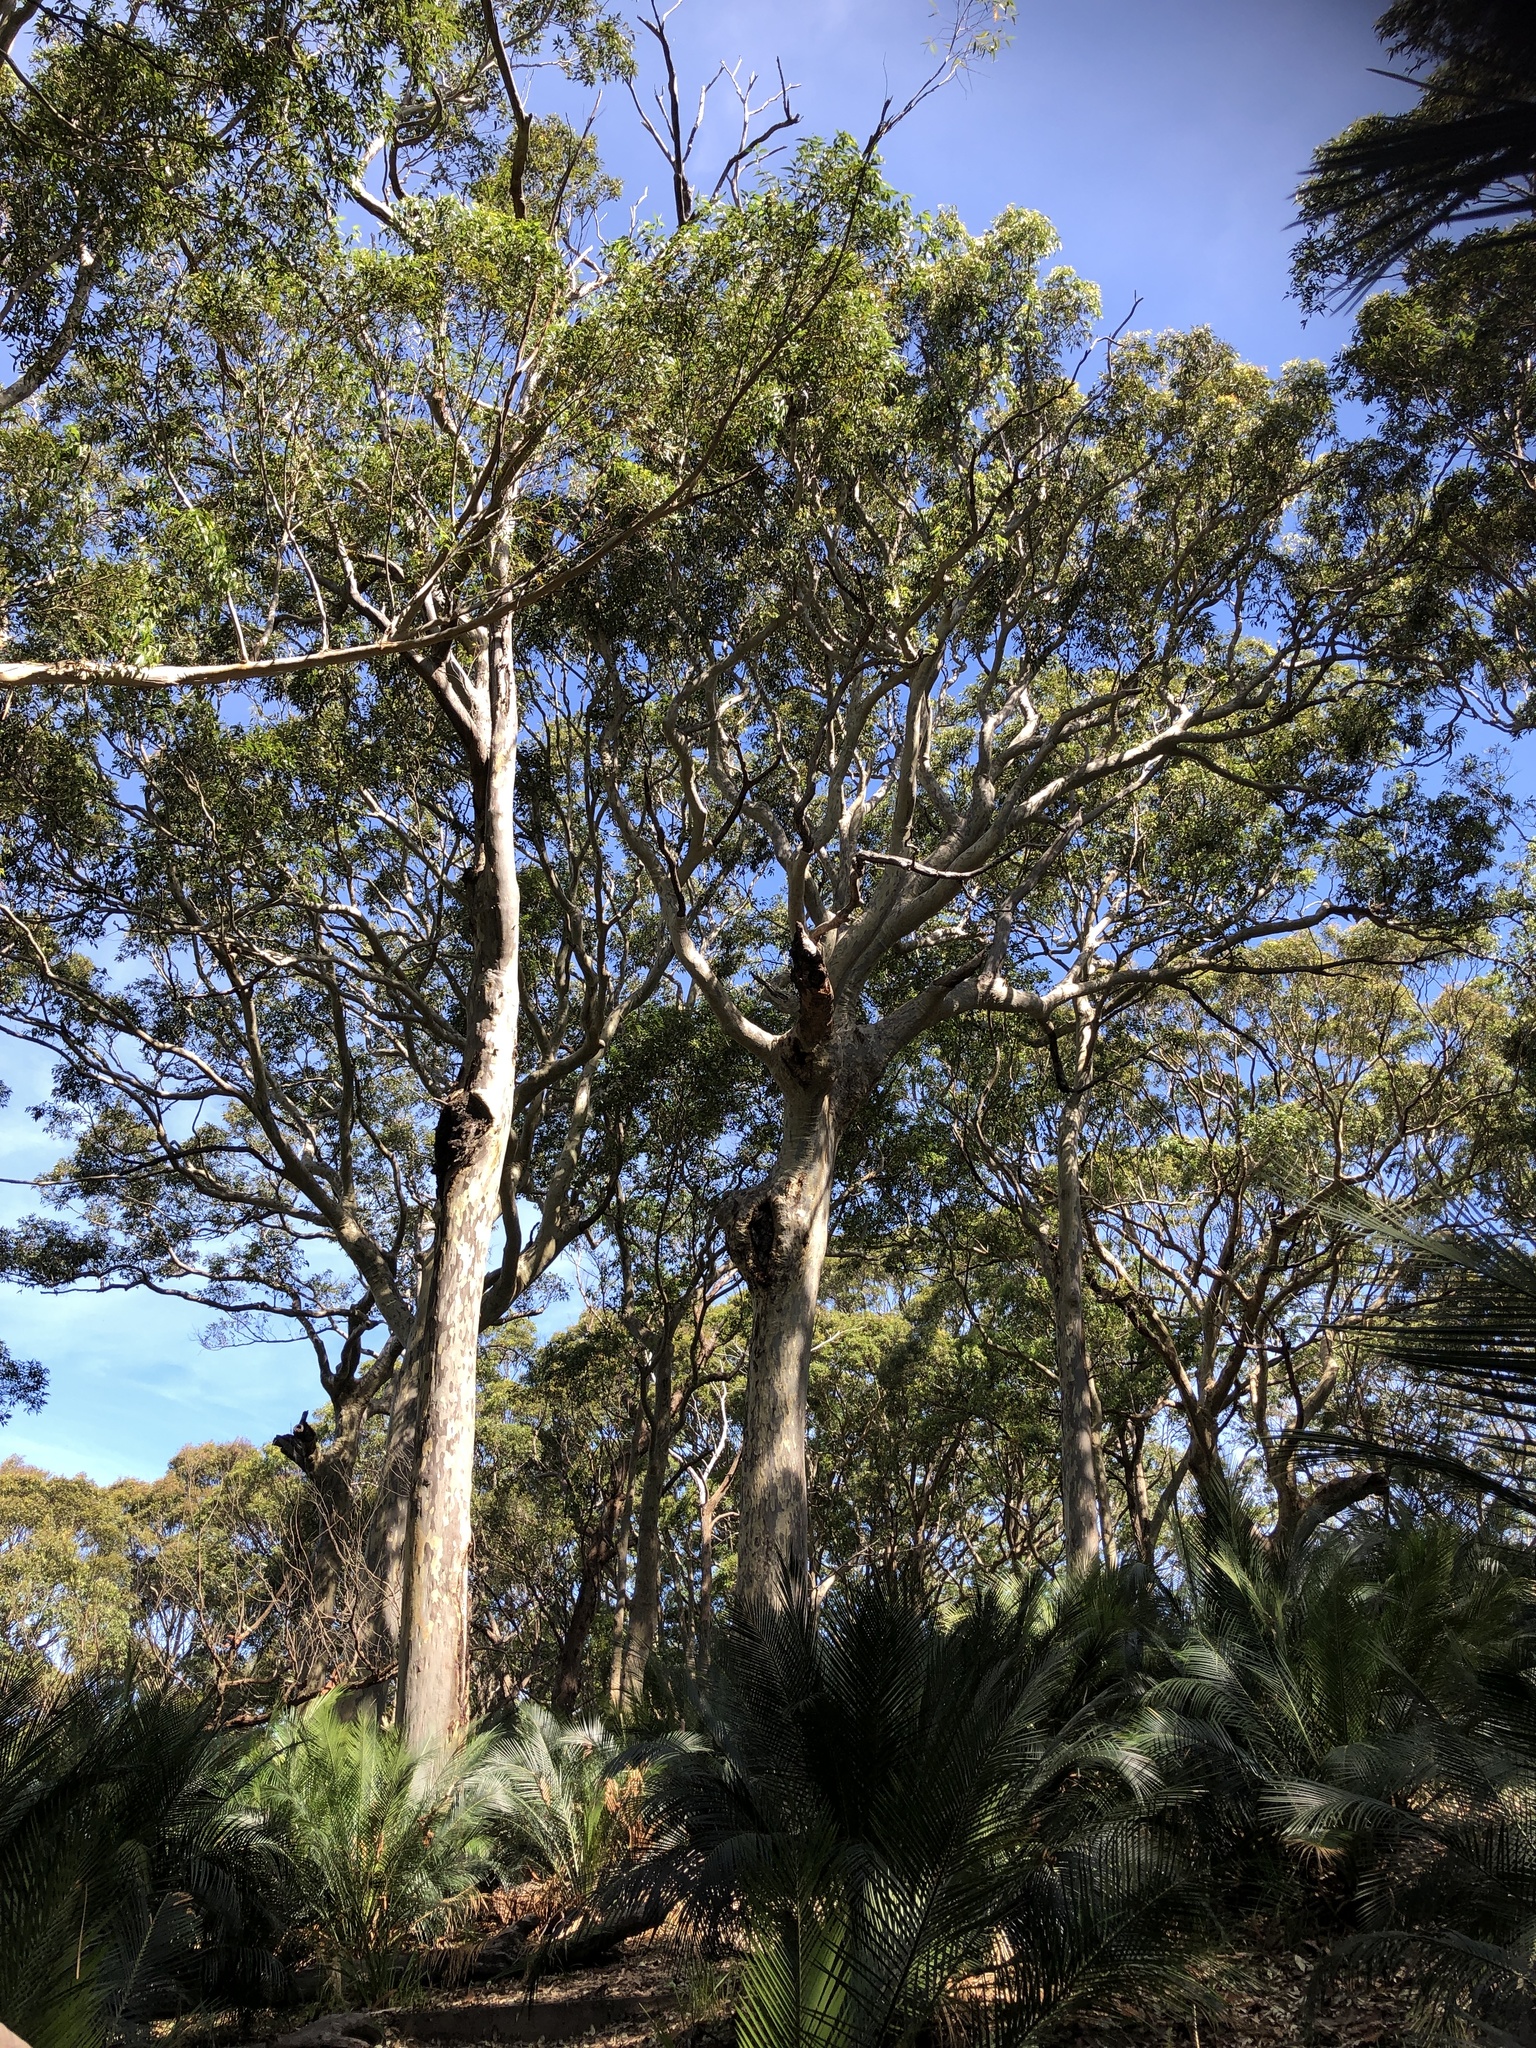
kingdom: Plantae
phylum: Tracheophyta
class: Magnoliopsida
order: Myrtales
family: Myrtaceae
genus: Corymbia
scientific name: Corymbia maculata
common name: Spotted gum
